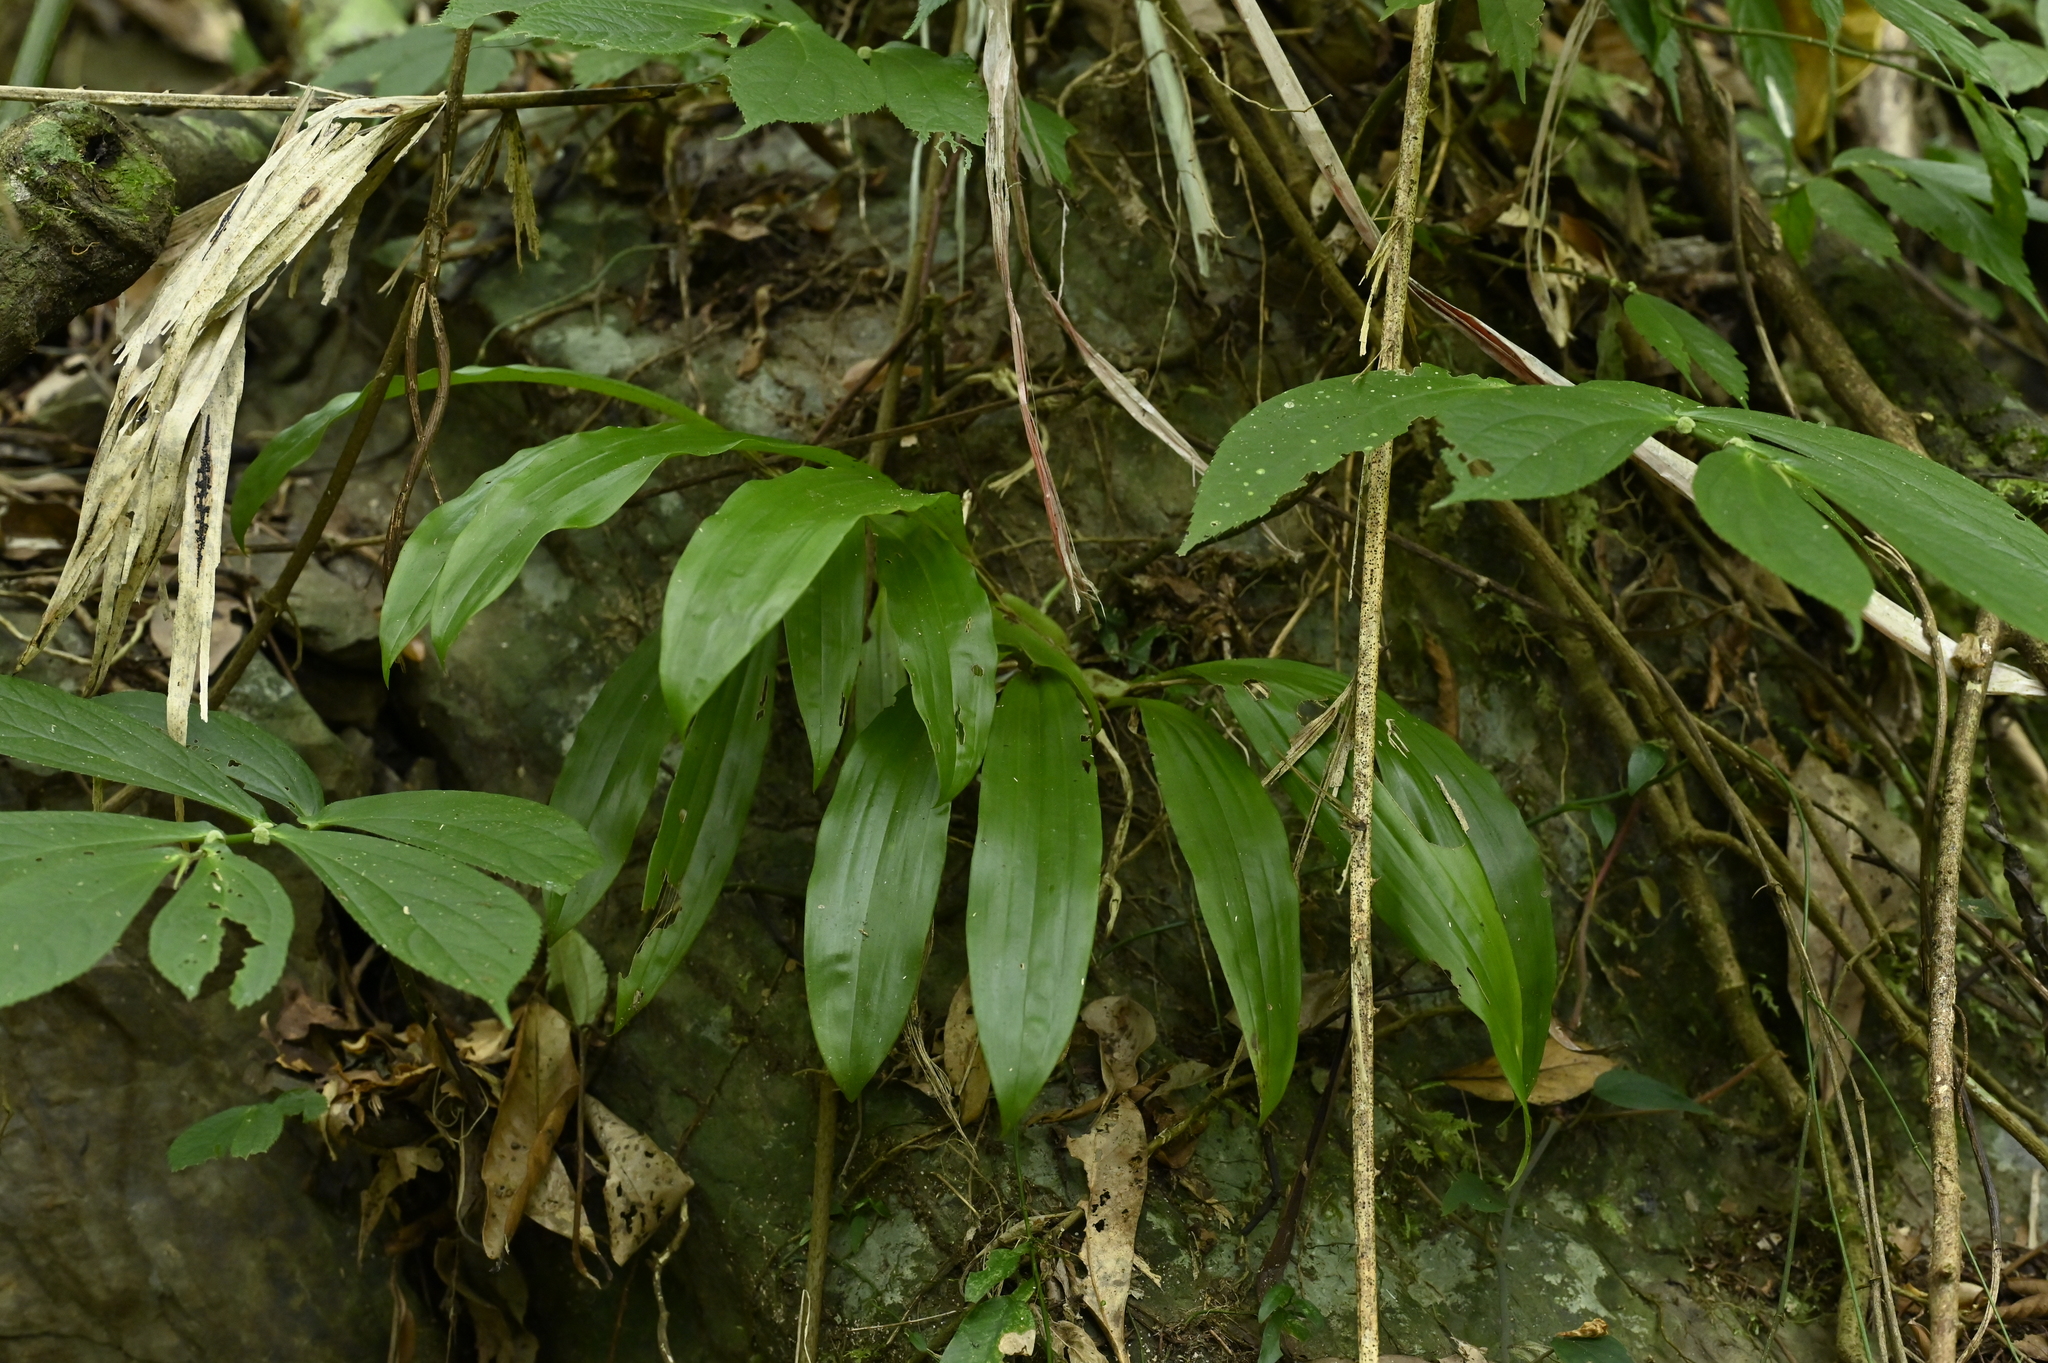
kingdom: Plantae
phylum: Tracheophyta
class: Liliopsida
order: Asparagales
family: Orchidaceae
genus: Eria
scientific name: Eria scabrilinguis
